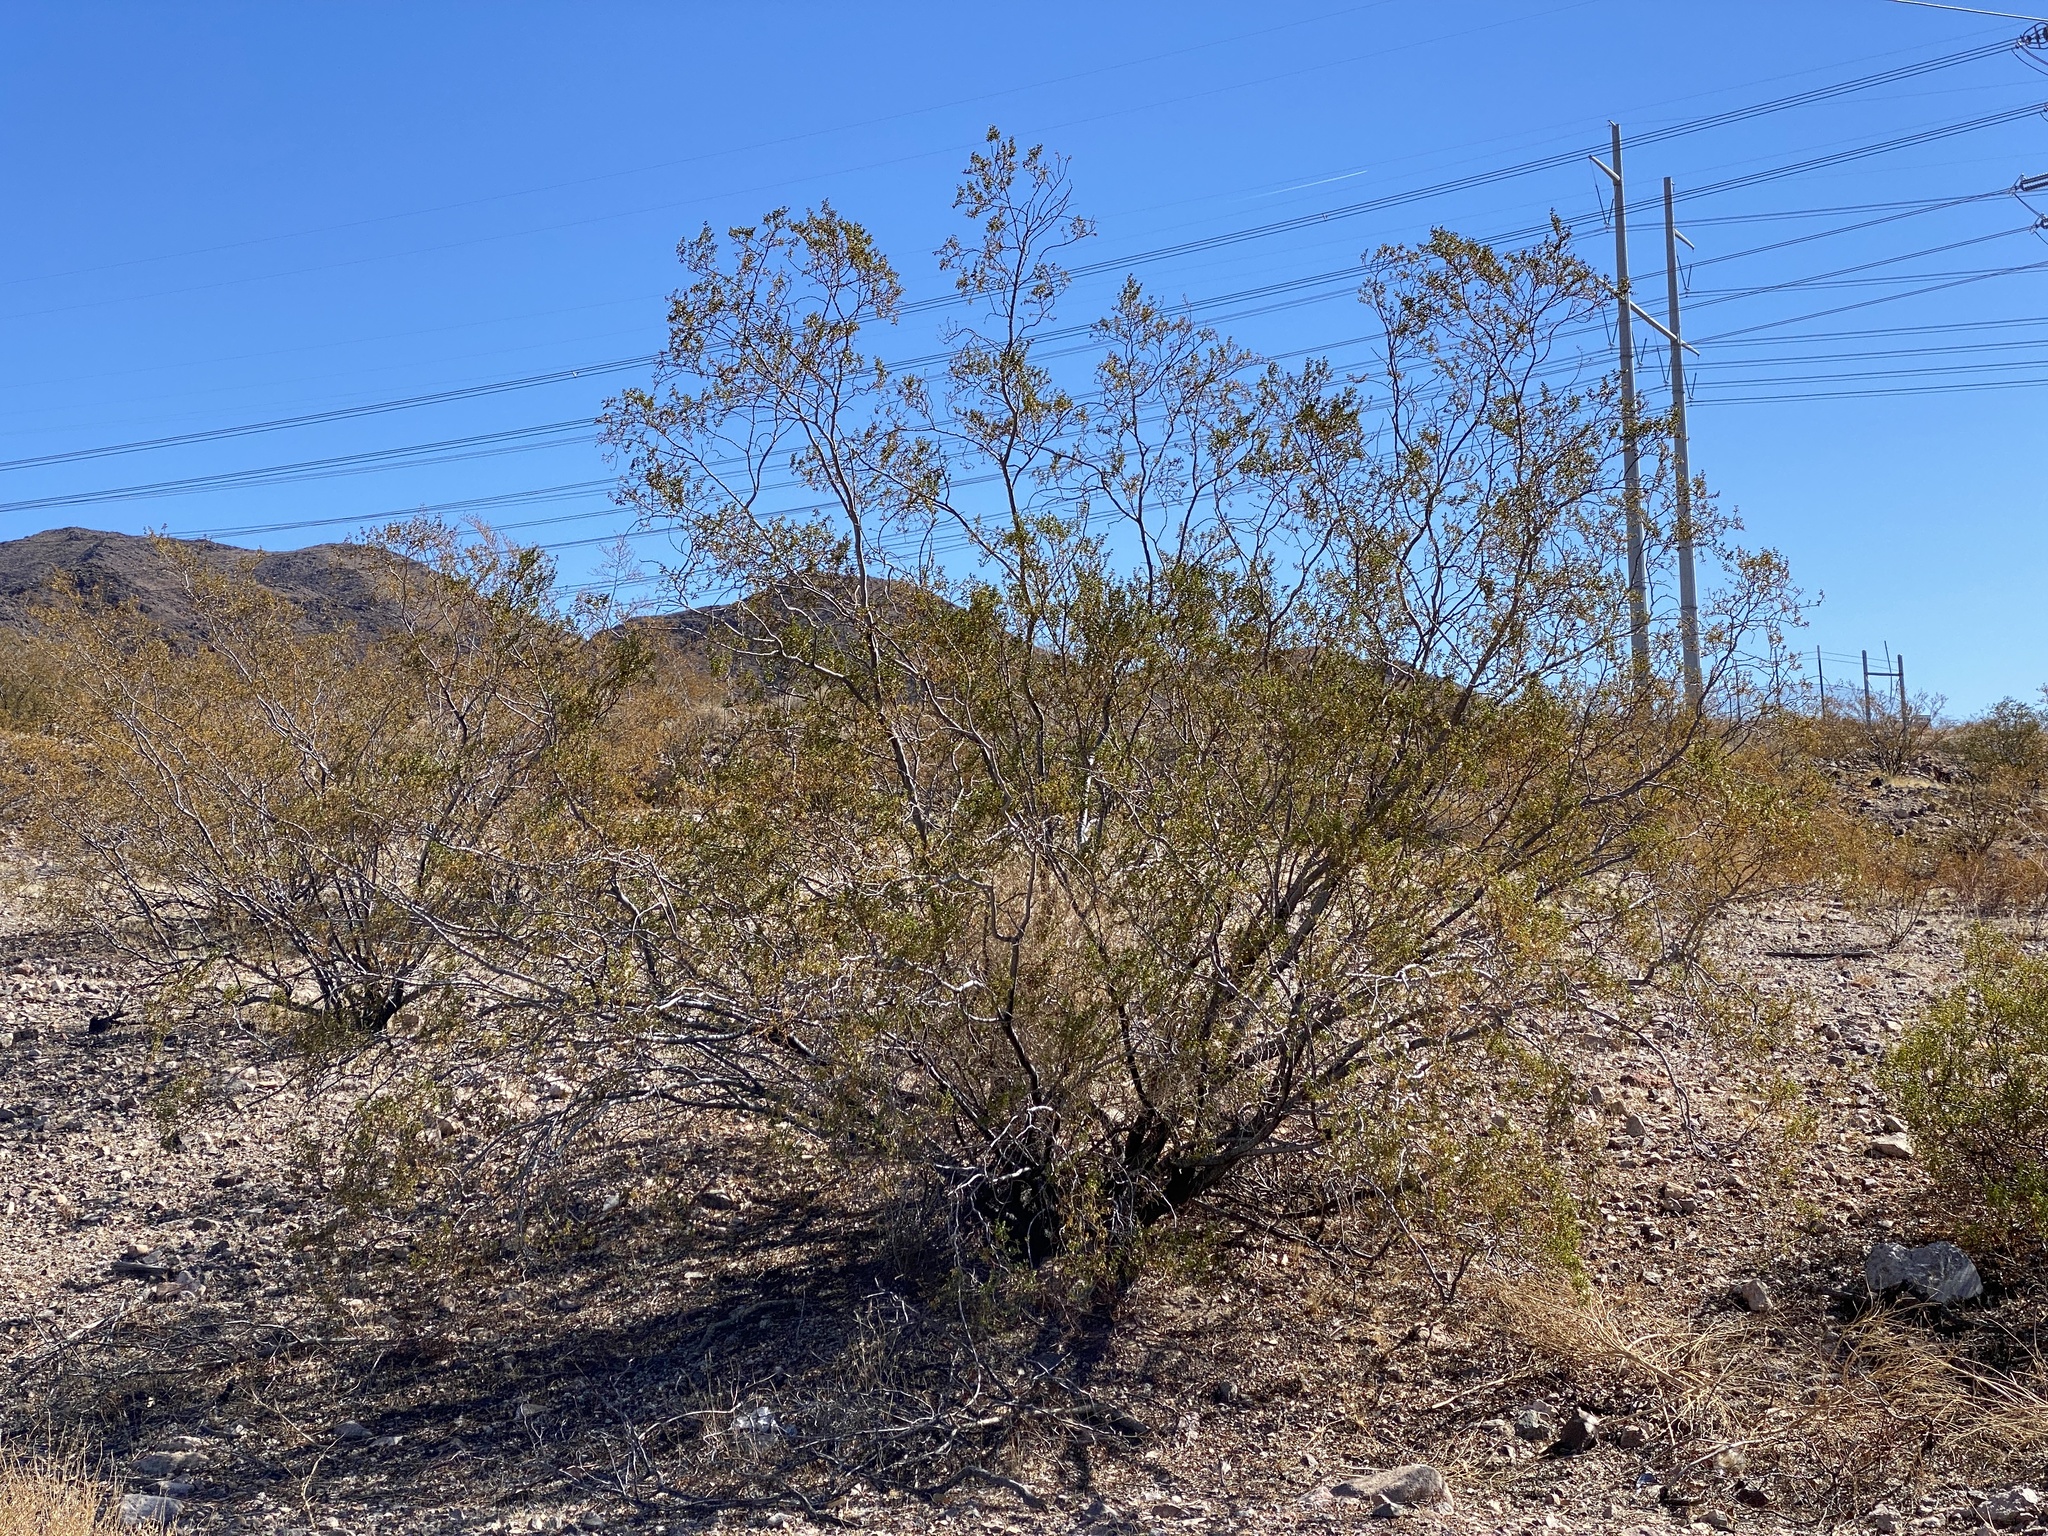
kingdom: Plantae
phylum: Tracheophyta
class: Magnoliopsida
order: Zygophyllales
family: Zygophyllaceae
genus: Larrea
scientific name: Larrea tridentata
